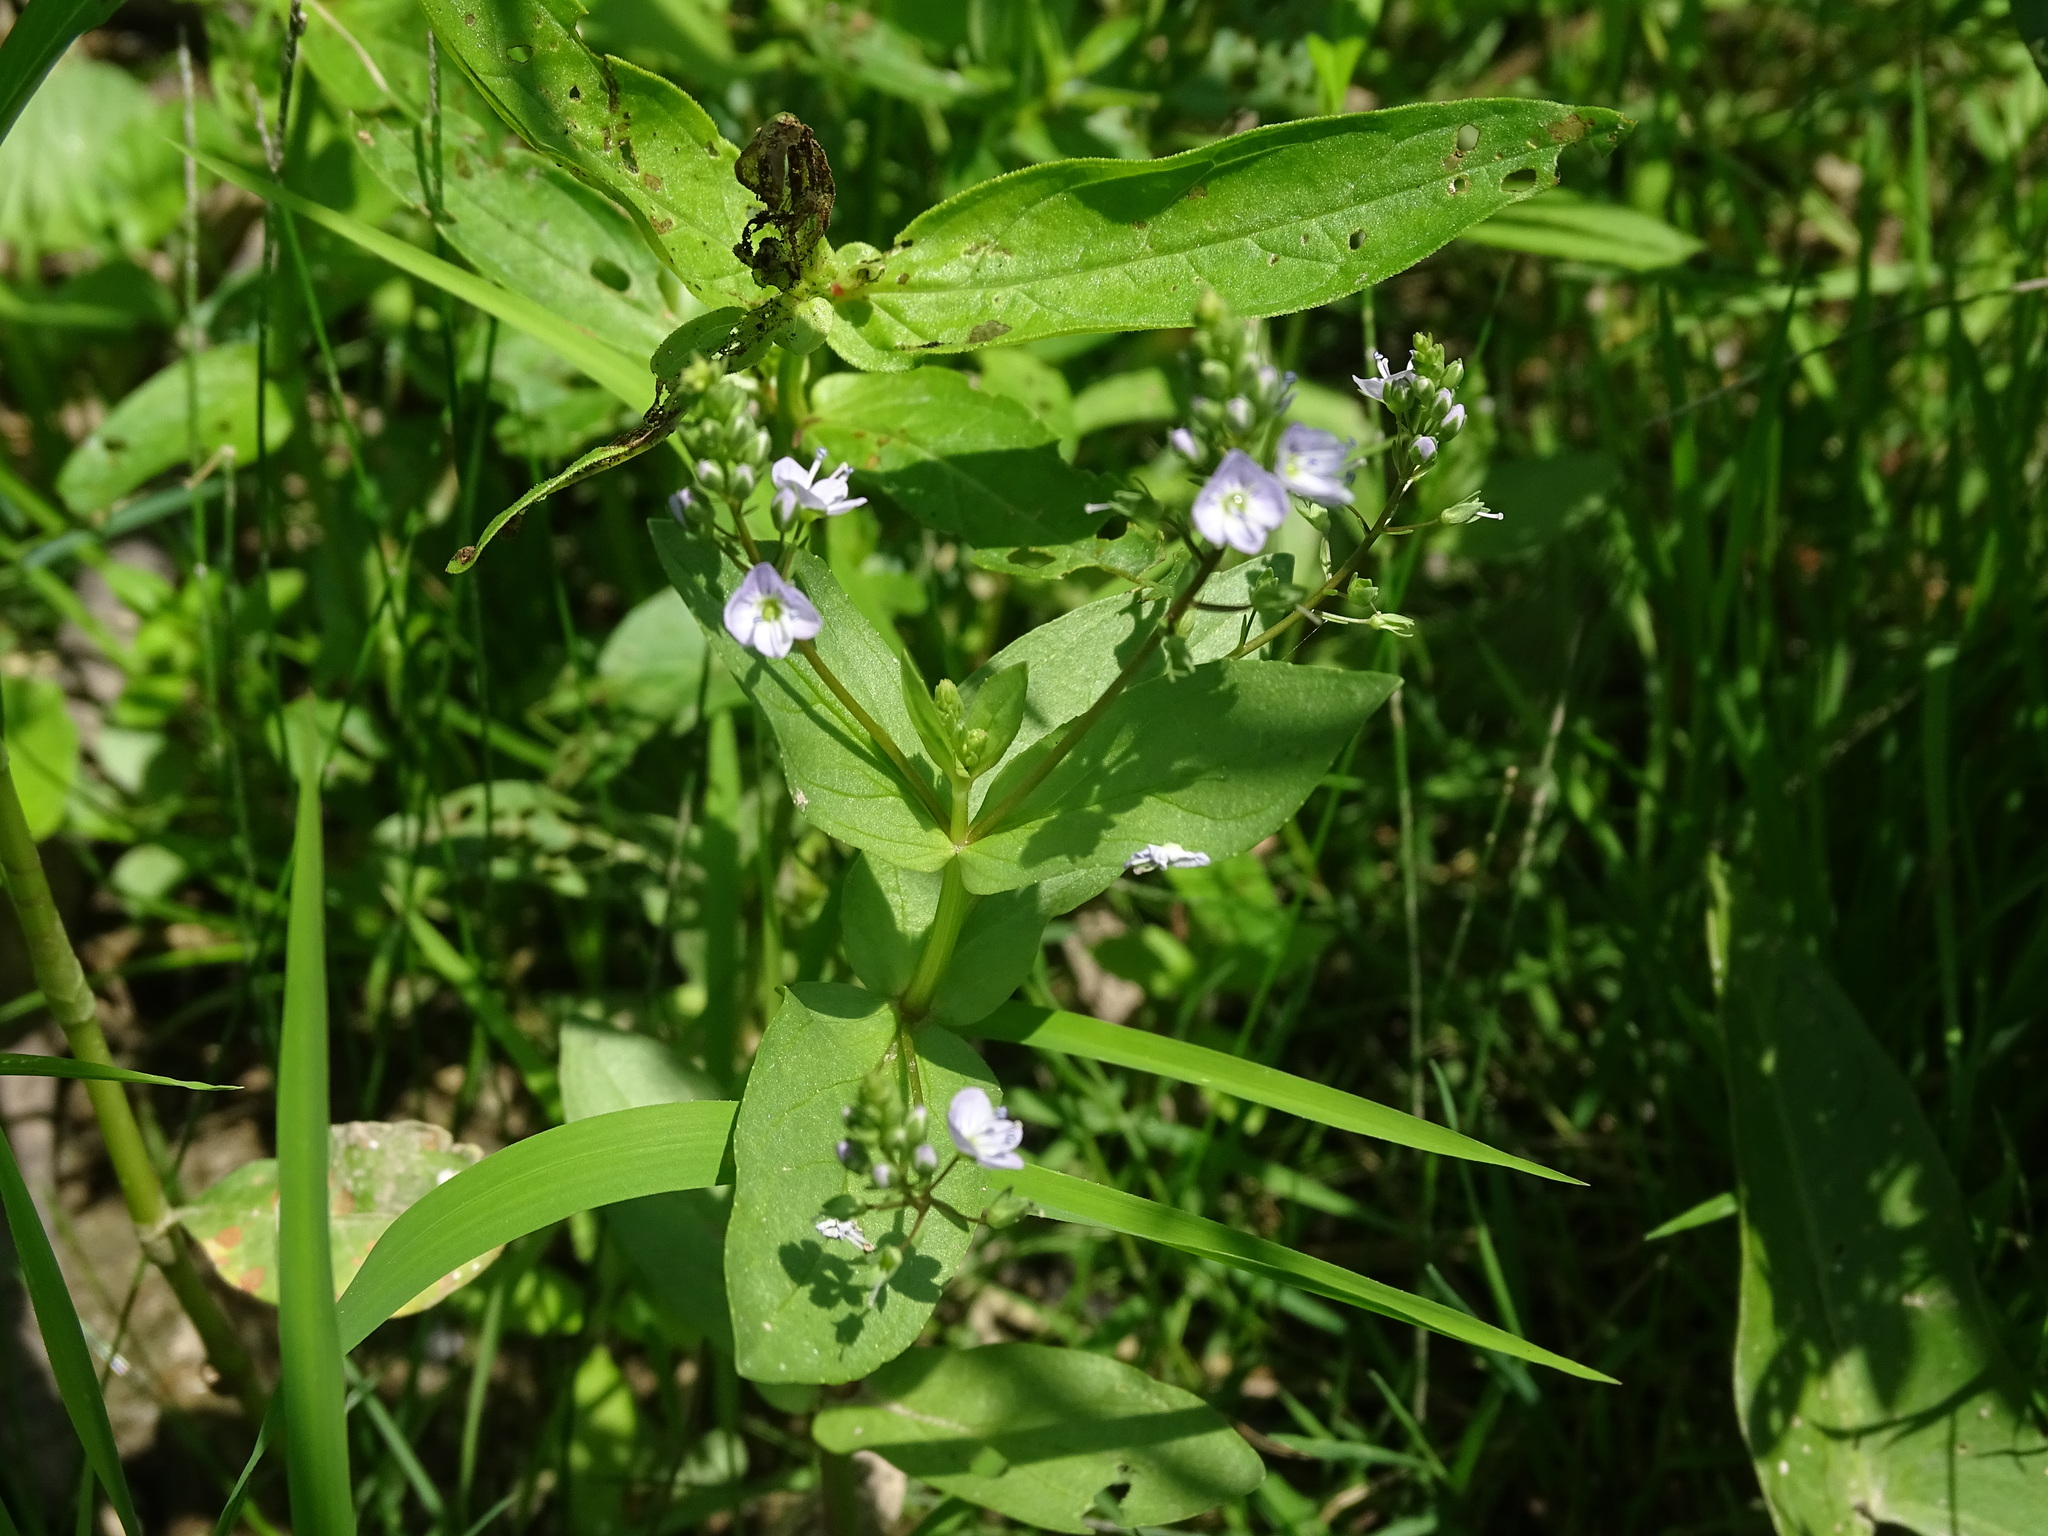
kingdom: Plantae
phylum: Tracheophyta
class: Magnoliopsida
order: Lamiales
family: Plantaginaceae
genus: Veronica
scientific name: Veronica anagallis-aquatica
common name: Water speedwell
